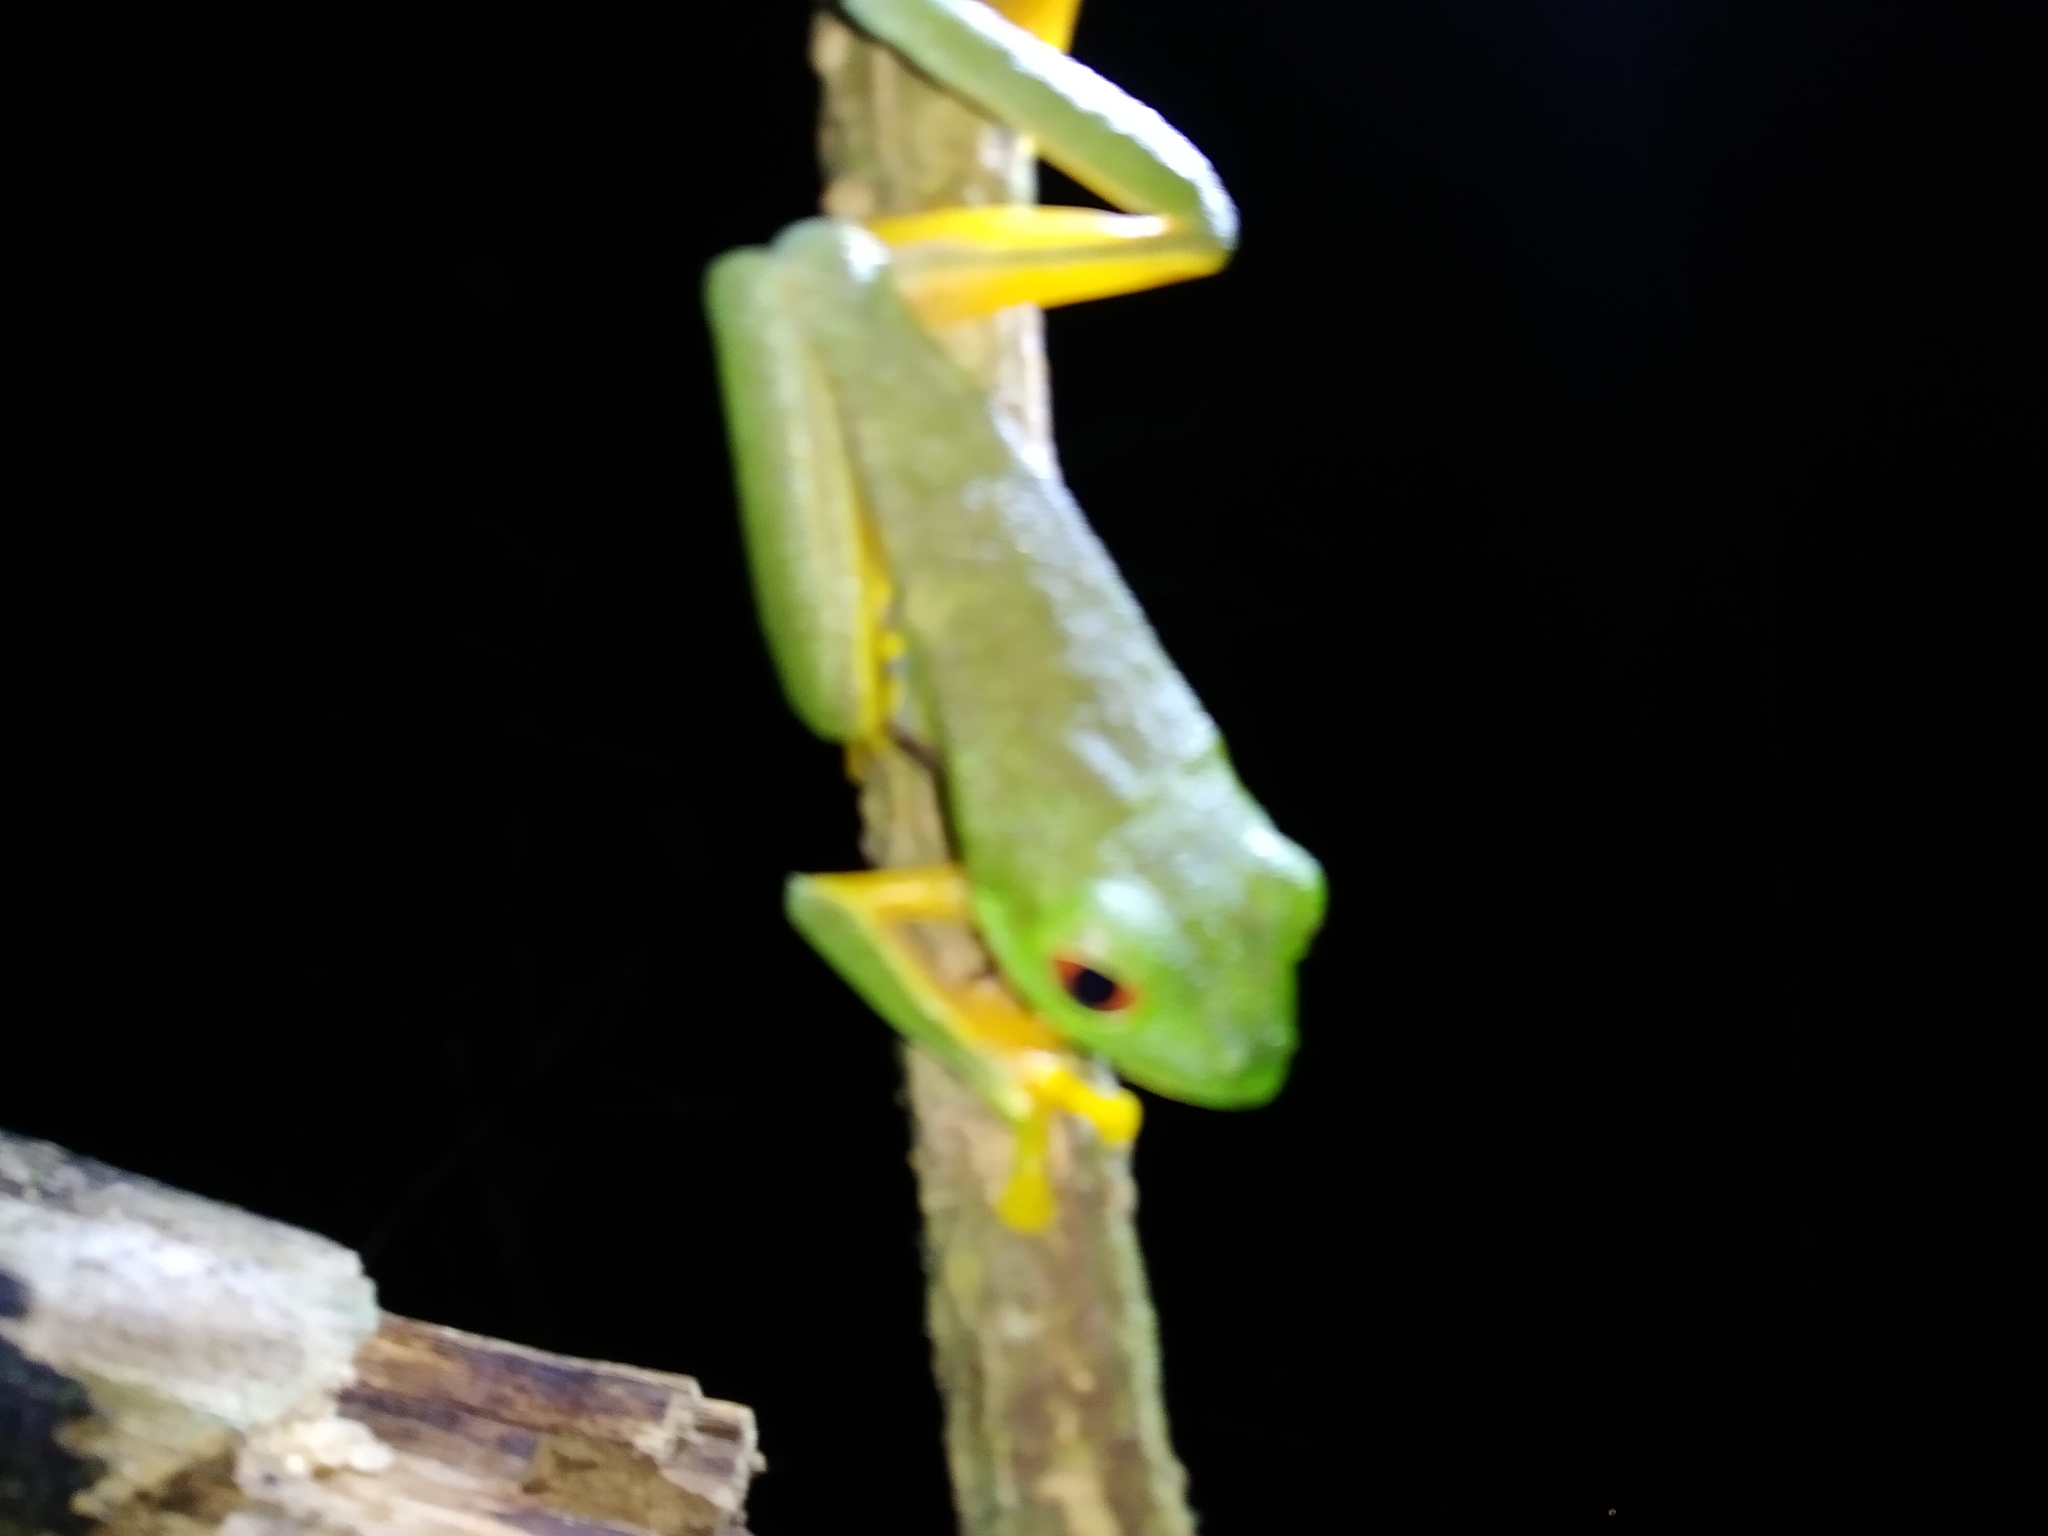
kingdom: Animalia
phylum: Chordata
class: Amphibia
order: Anura
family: Phyllomedusidae
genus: Agalychnis
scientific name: Agalychnis
